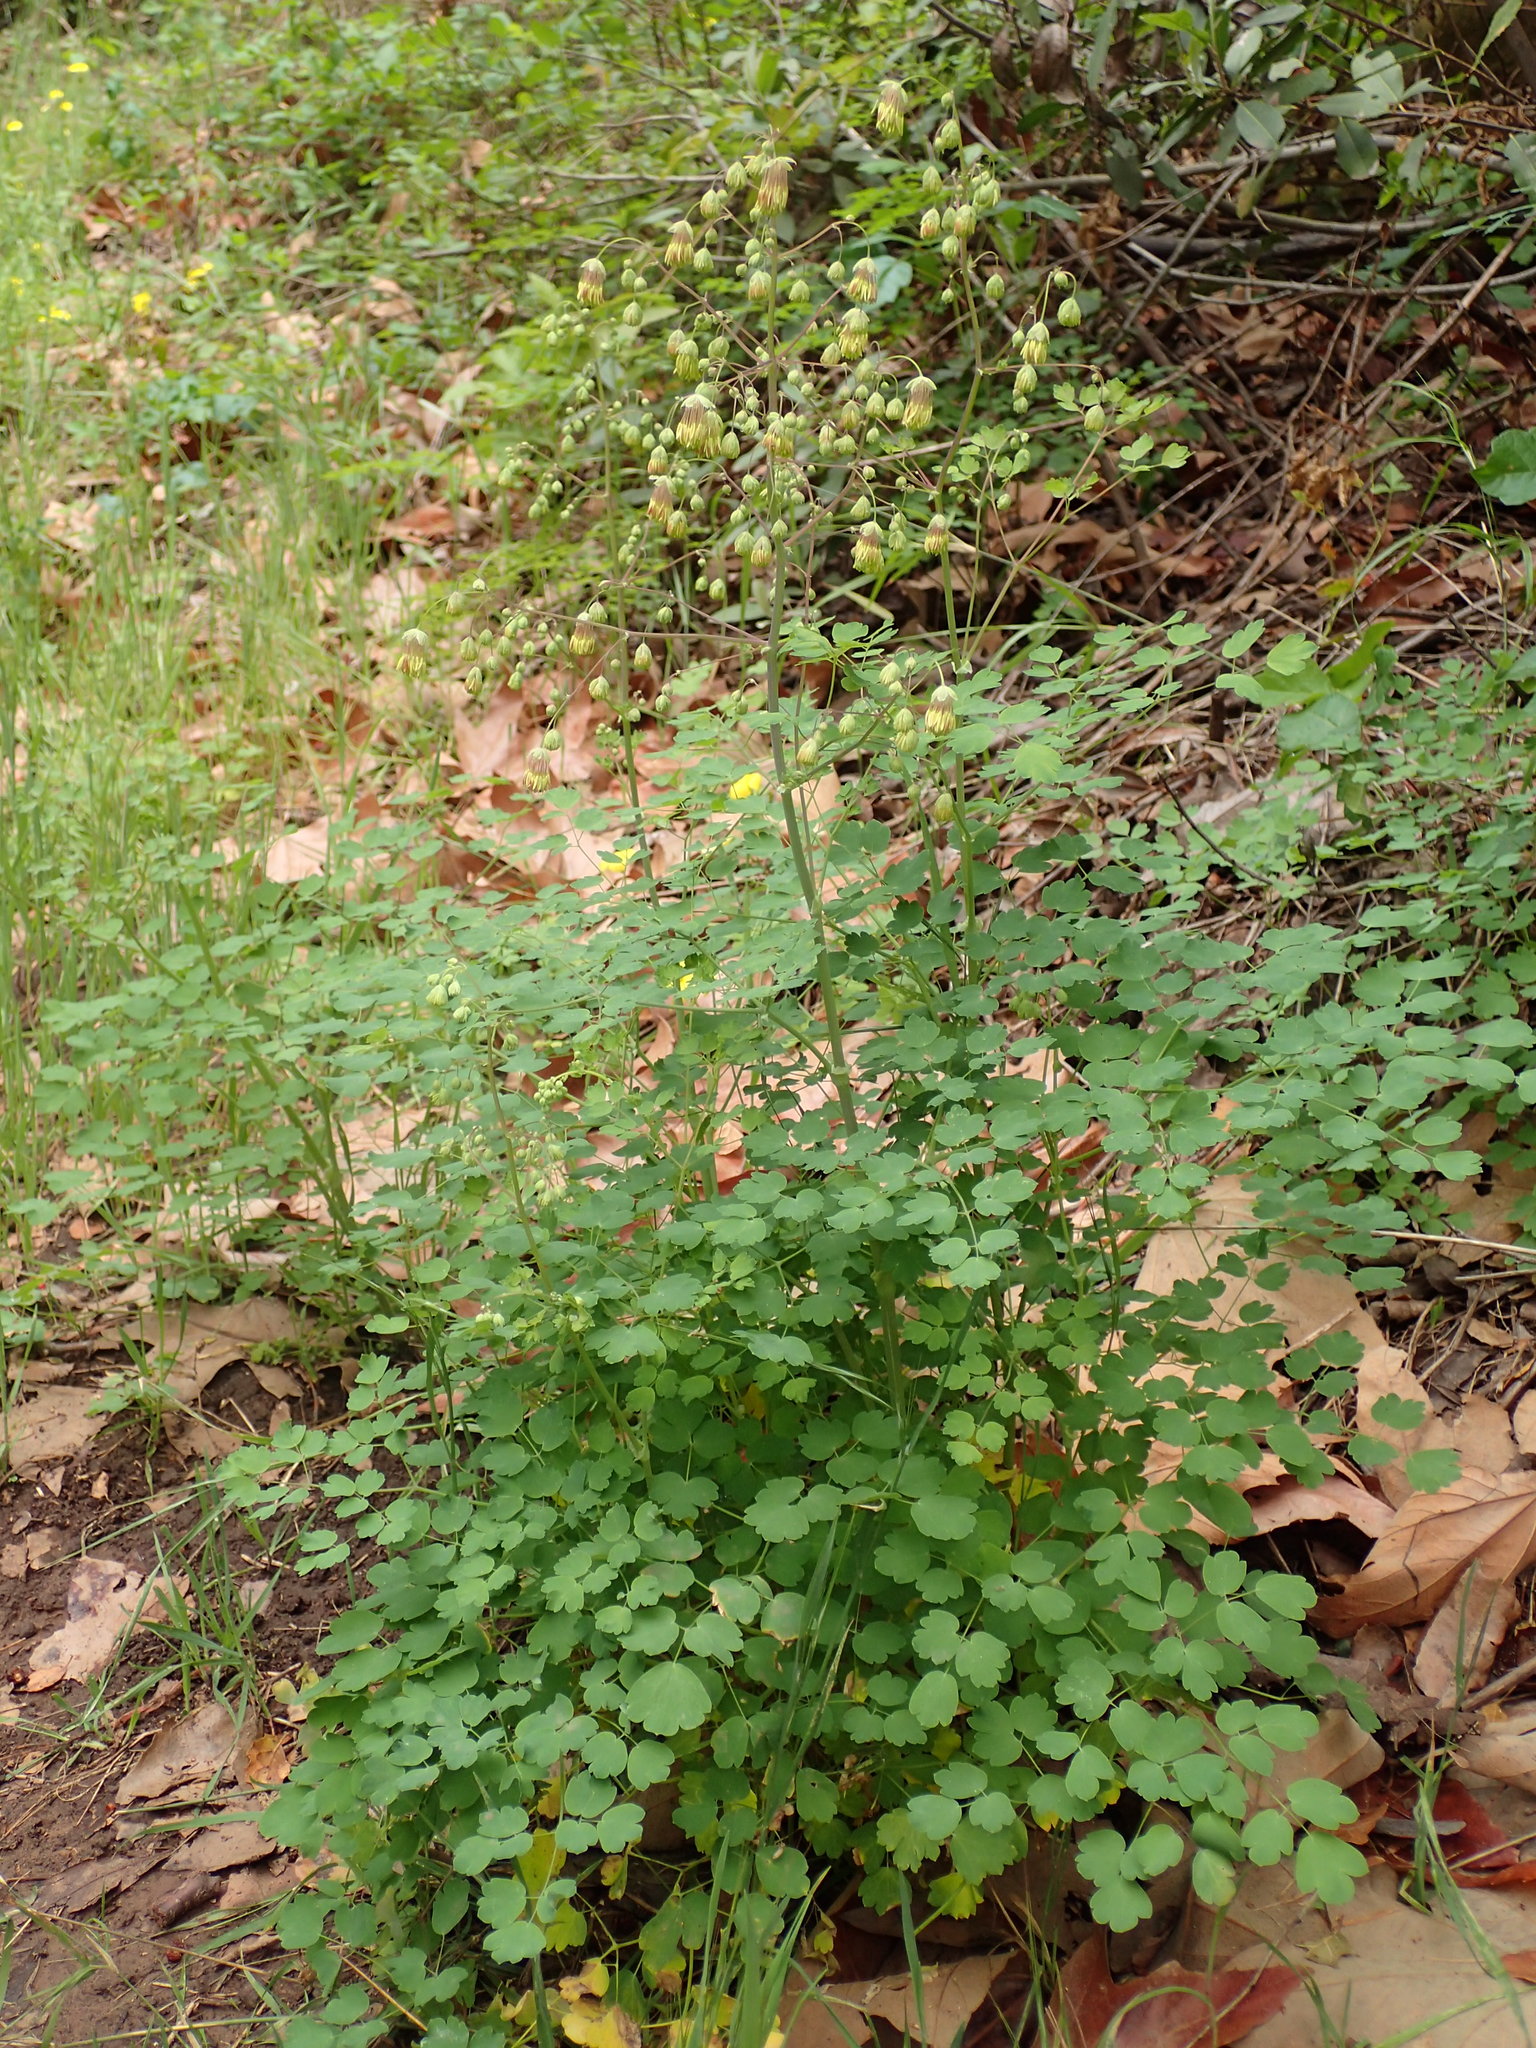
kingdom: Plantae
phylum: Tracheophyta
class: Magnoliopsida
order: Ranunculales
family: Ranunculaceae
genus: Thalictrum
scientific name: Thalictrum fendleri
